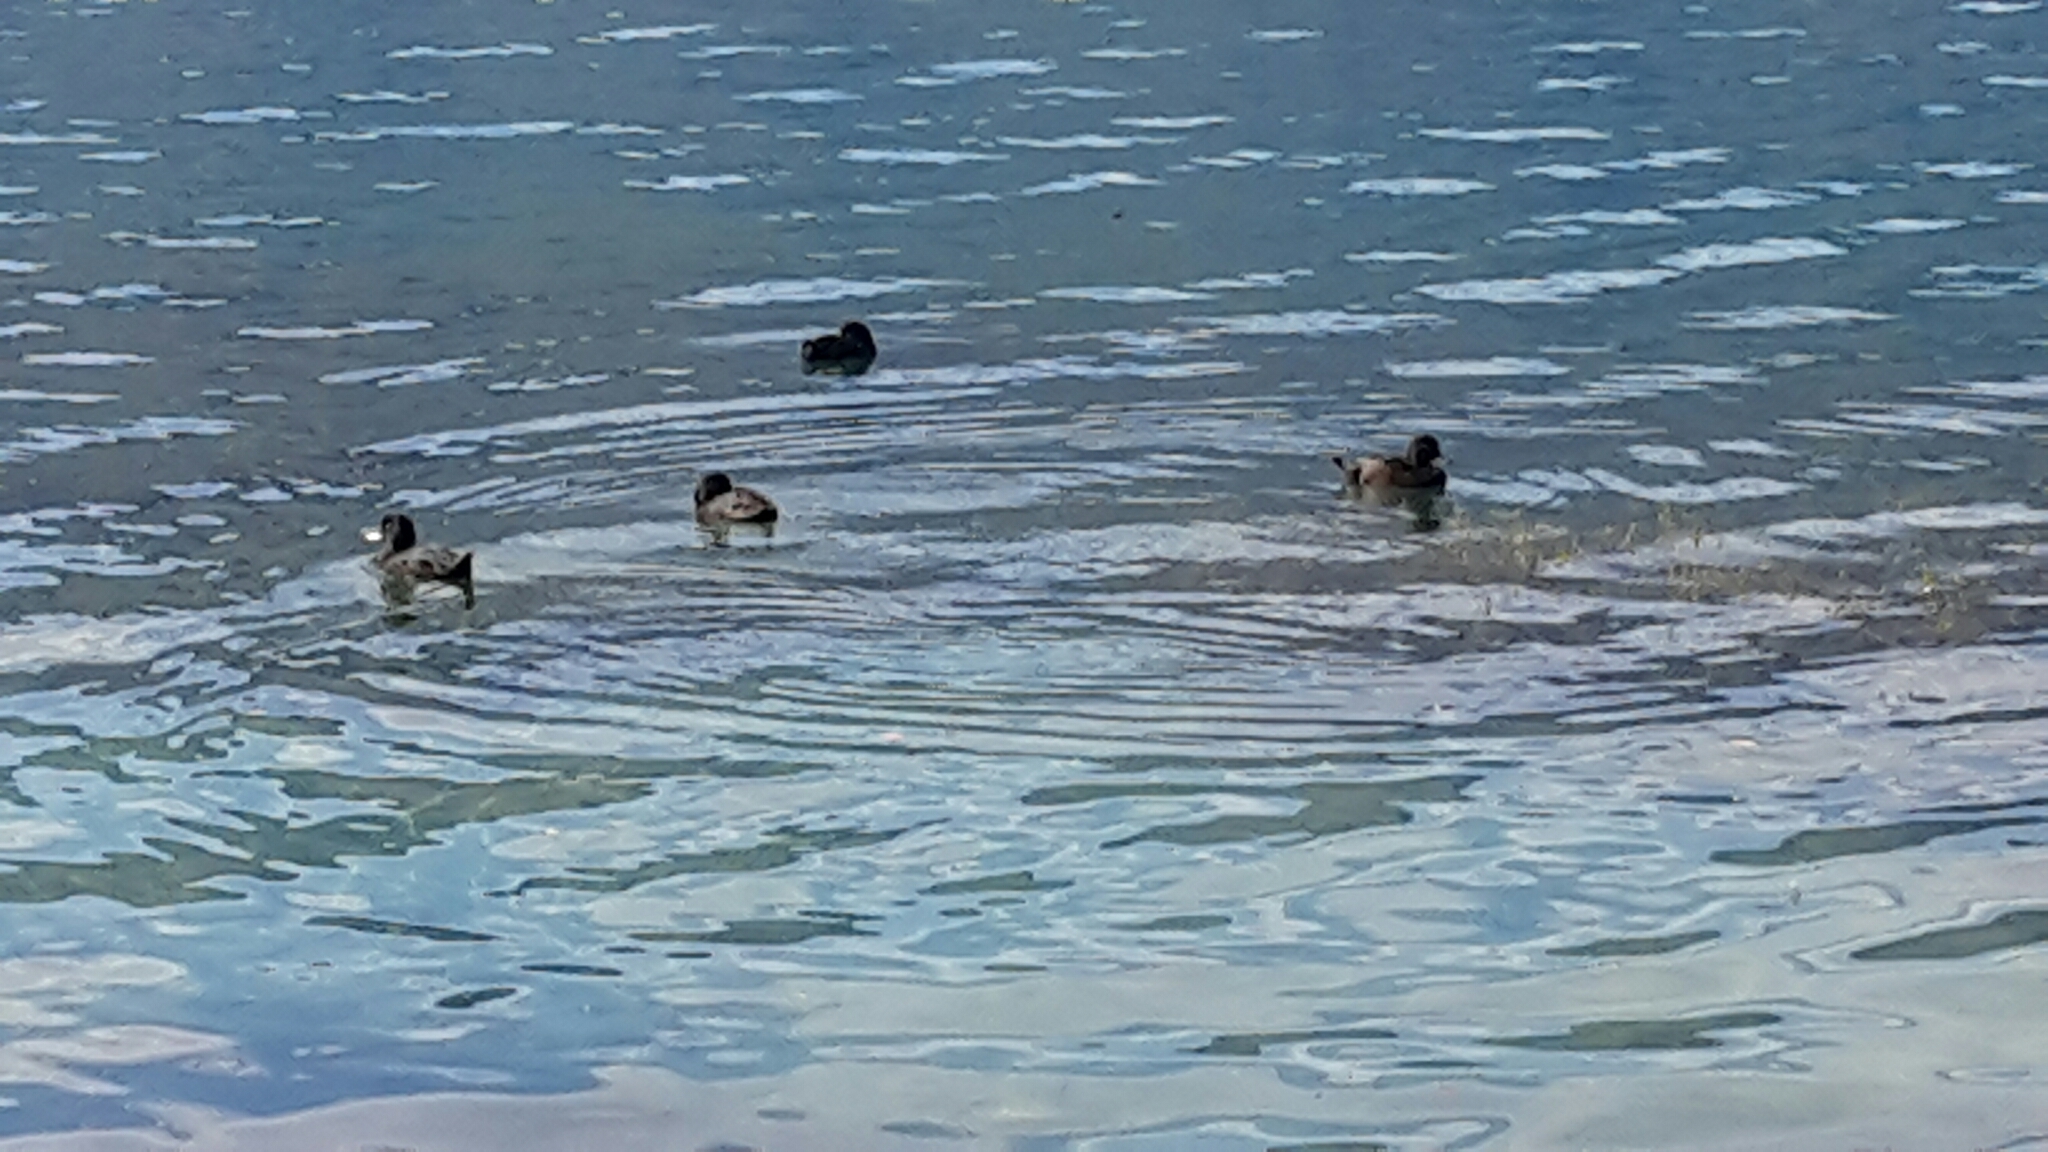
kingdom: Animalia
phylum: Chordata
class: Aves
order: Anseriformes
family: Anatidae
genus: Aythya
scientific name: Aythya novaeseelandiae
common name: New zealand scaup
